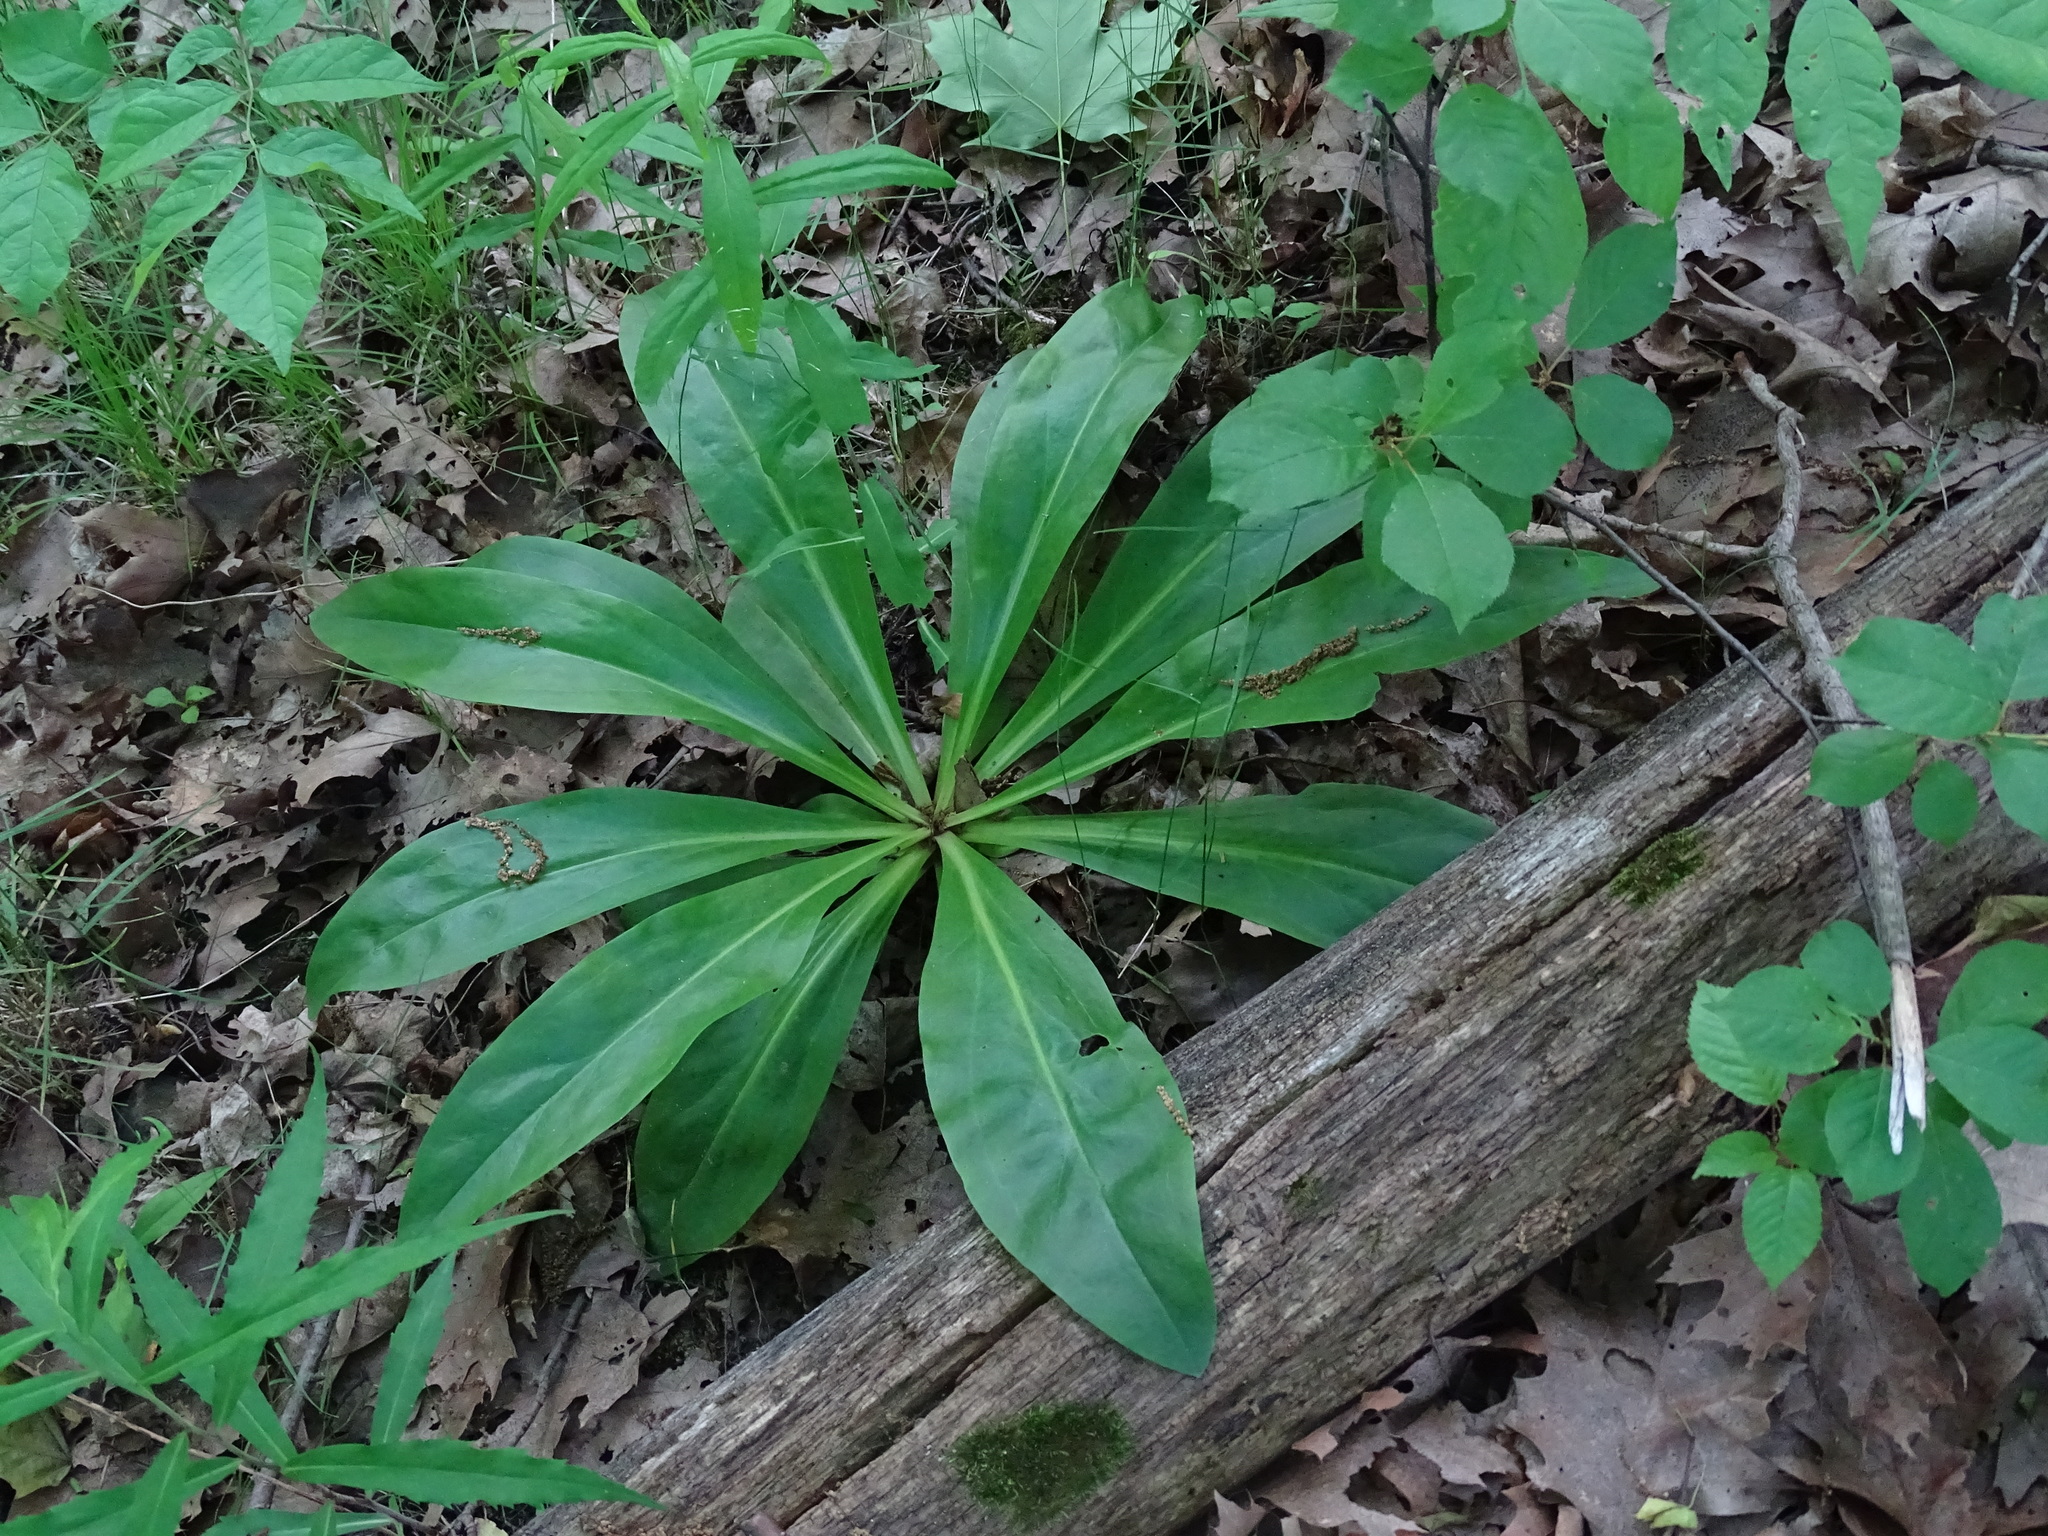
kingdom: Plantae
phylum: Tracheophyta
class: Magnoliopsida
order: Gentianales
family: Gentianaceae
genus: Frasera
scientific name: Frasera caroliniensis
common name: American columbo
